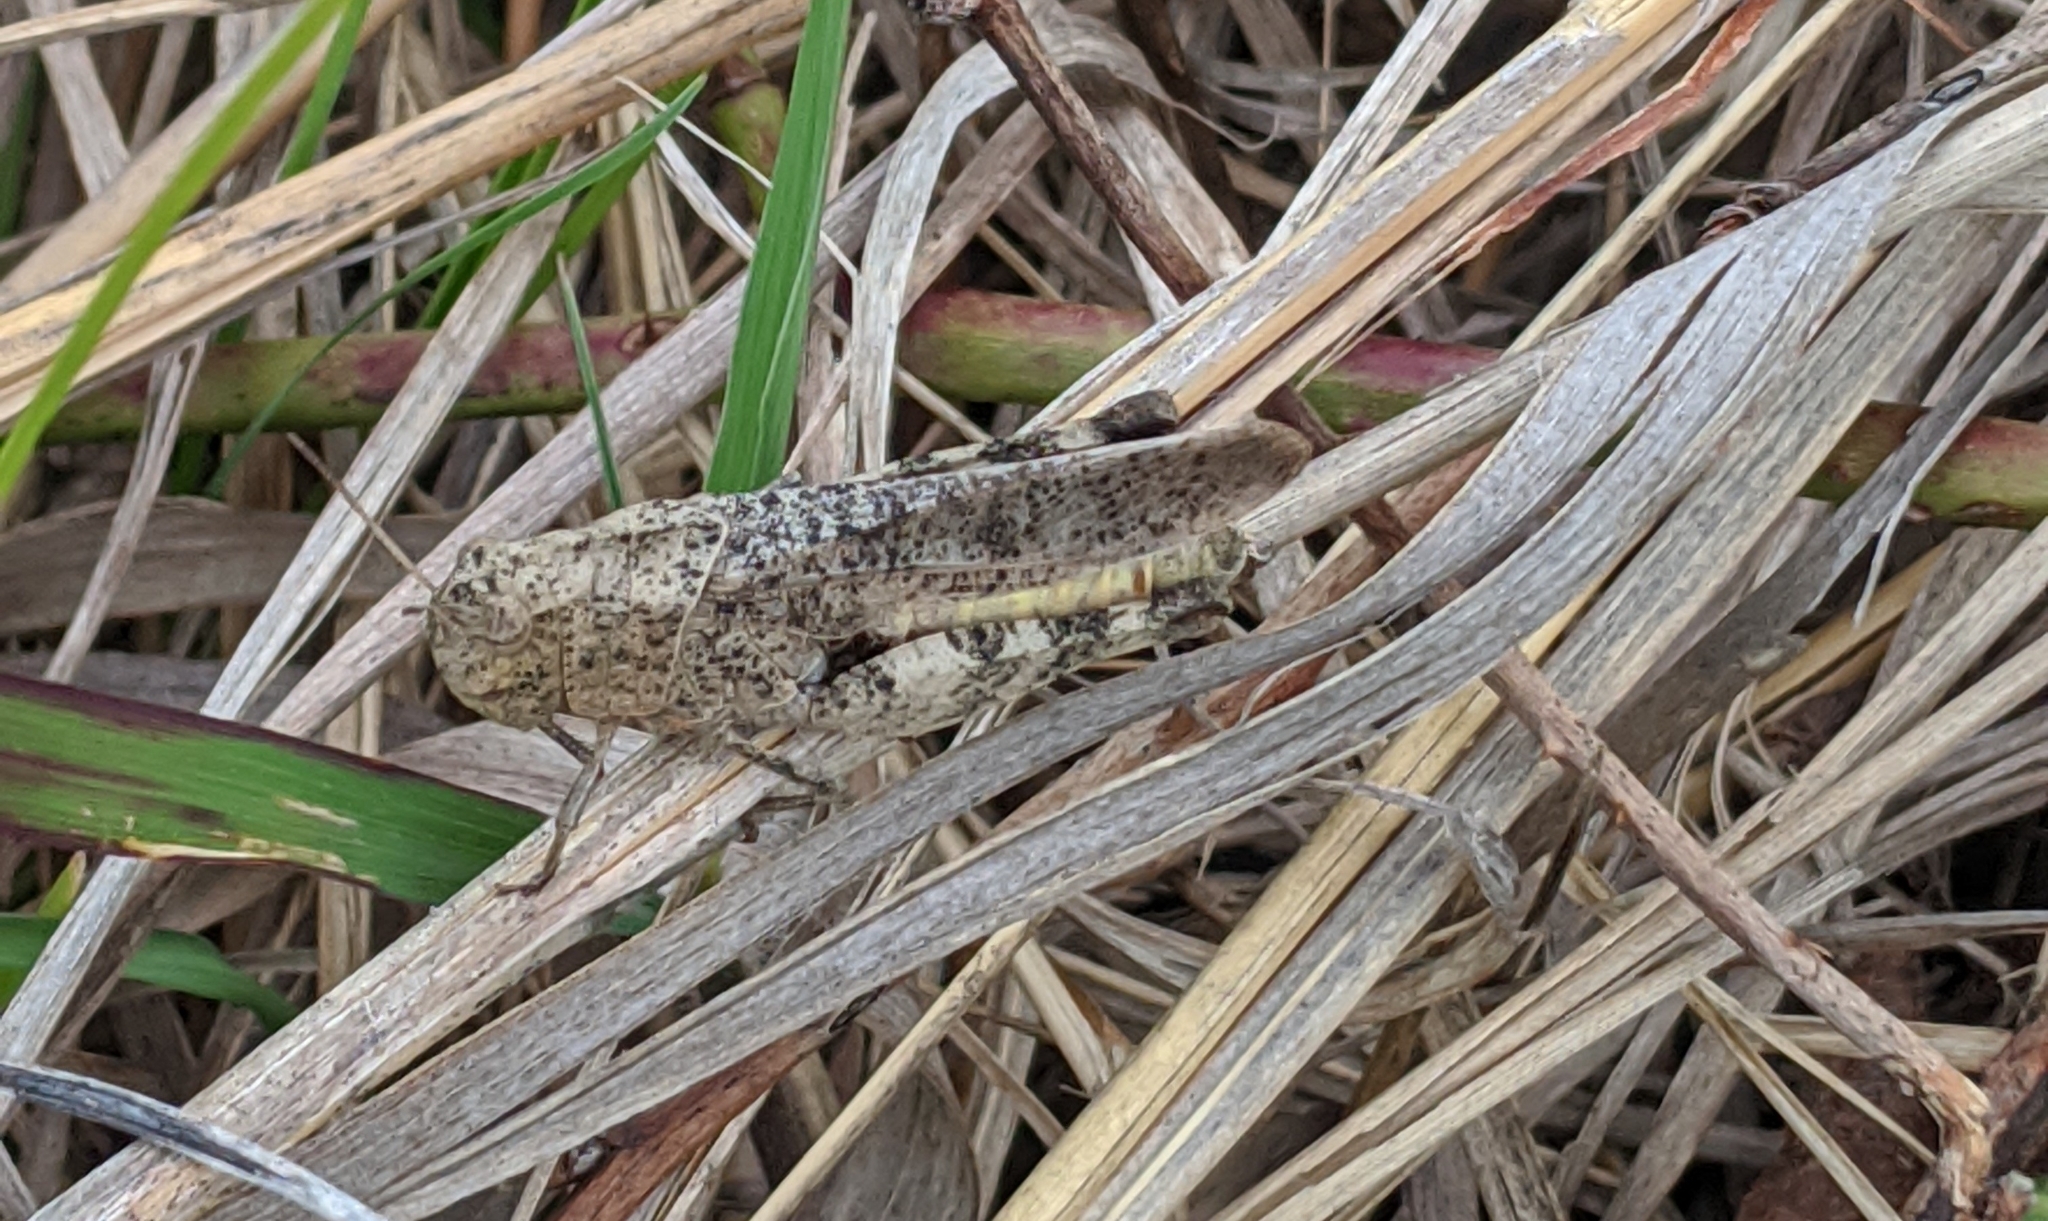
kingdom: Animalia
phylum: Arthropoda
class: Insecta
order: Orthoptera
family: Acrididae
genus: Arphia
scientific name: Arphia sulphurea
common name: Spring yellow-winged locust
